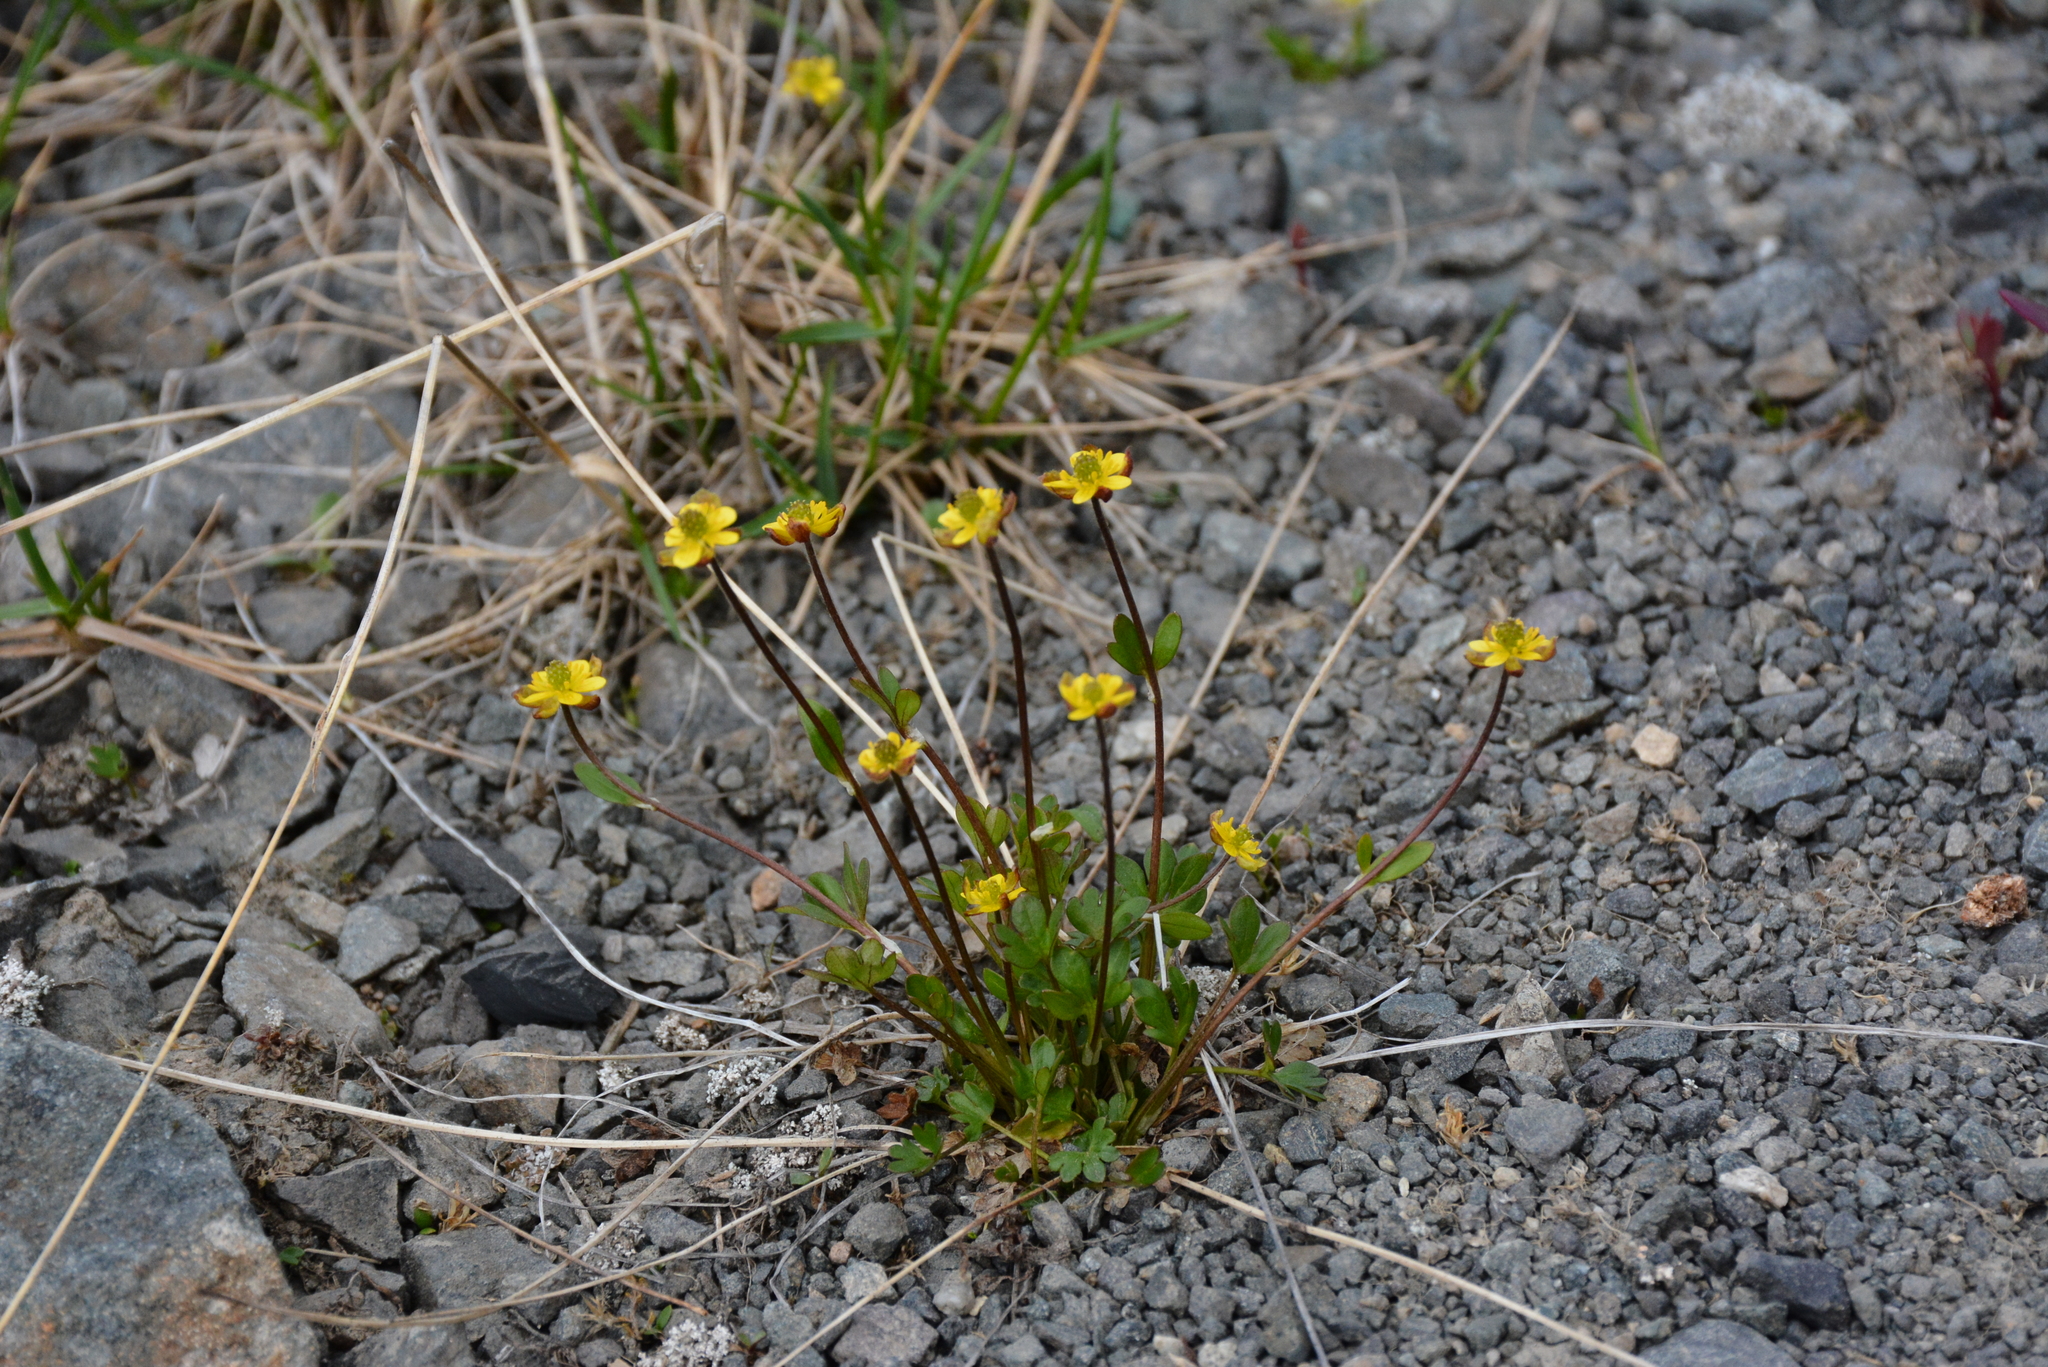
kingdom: Plantae
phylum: Tracheophyta
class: Magnoliopsida
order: Ranunculales
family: Ranunculaceae
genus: Ranunculus
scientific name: Ranunculus pygmaeus
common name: Dwarf buttercup
